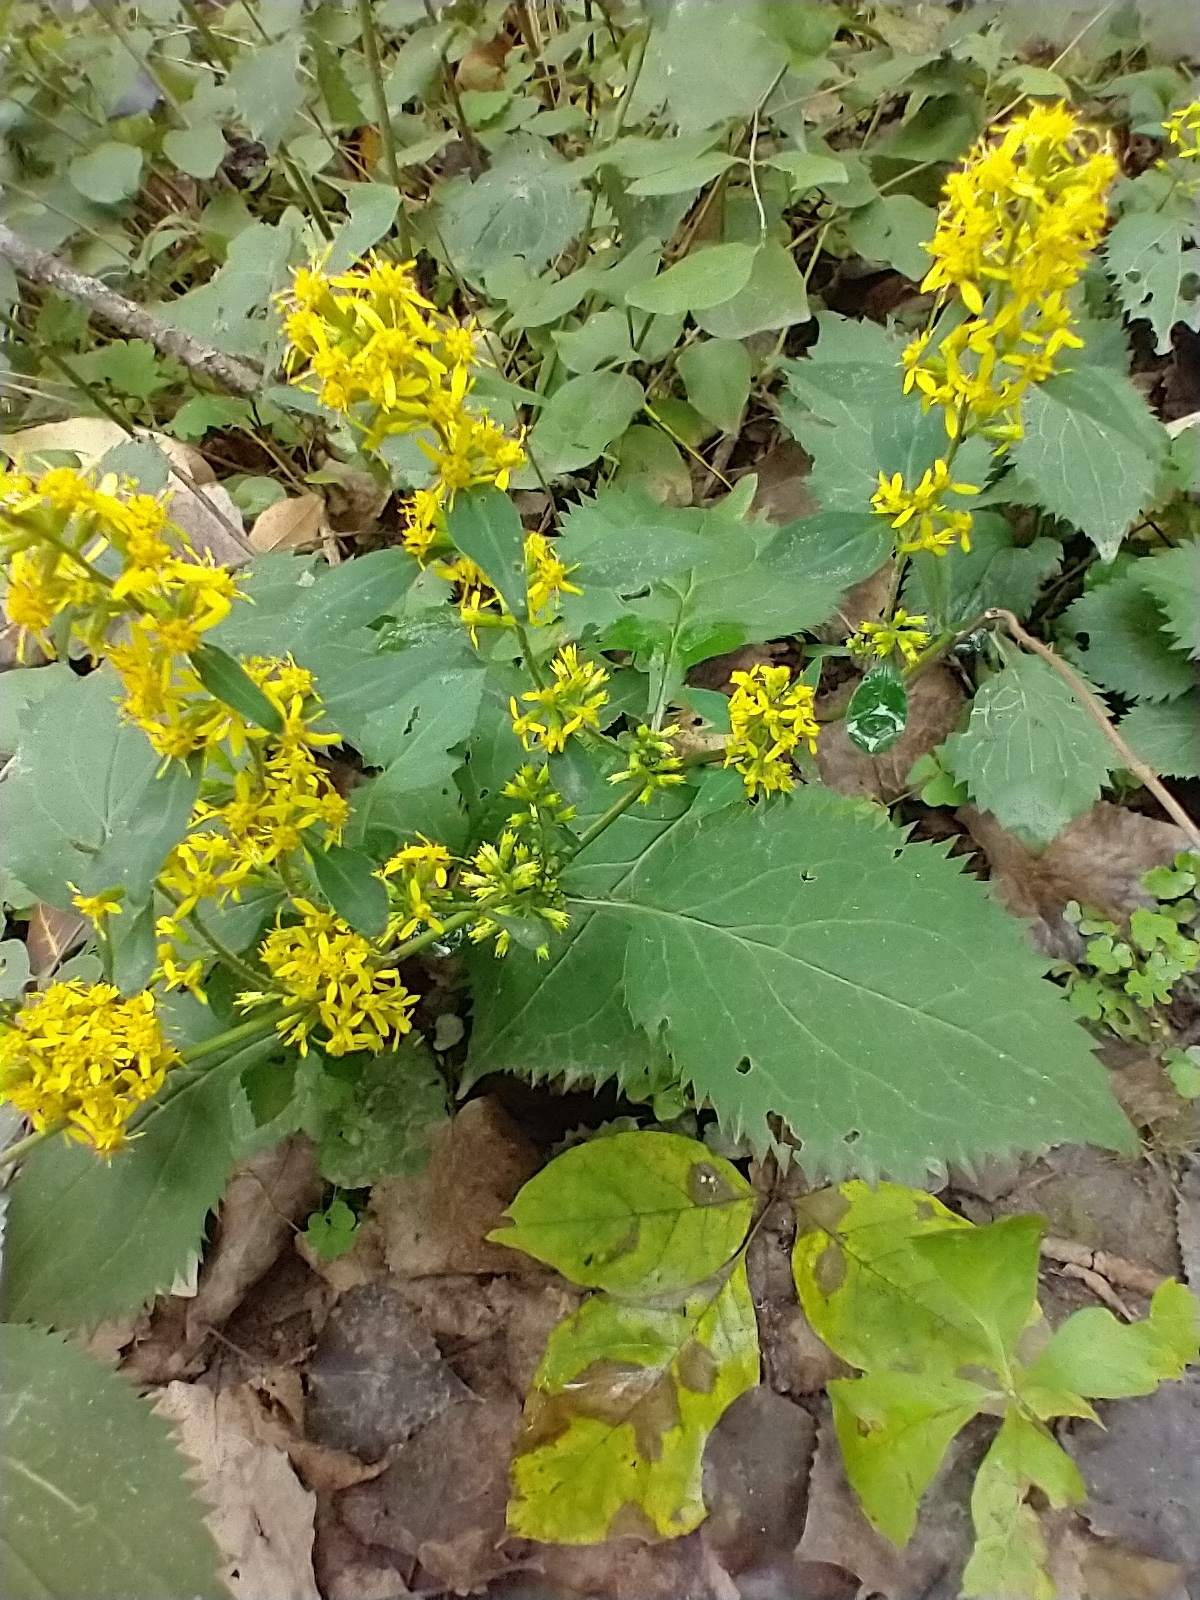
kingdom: Plantae
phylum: Tracheophyta
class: Magnoliopsida
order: Asterales
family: Asteraceae
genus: Solidago
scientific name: Solidago flexicaulis
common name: Zig-zag goldenrod
